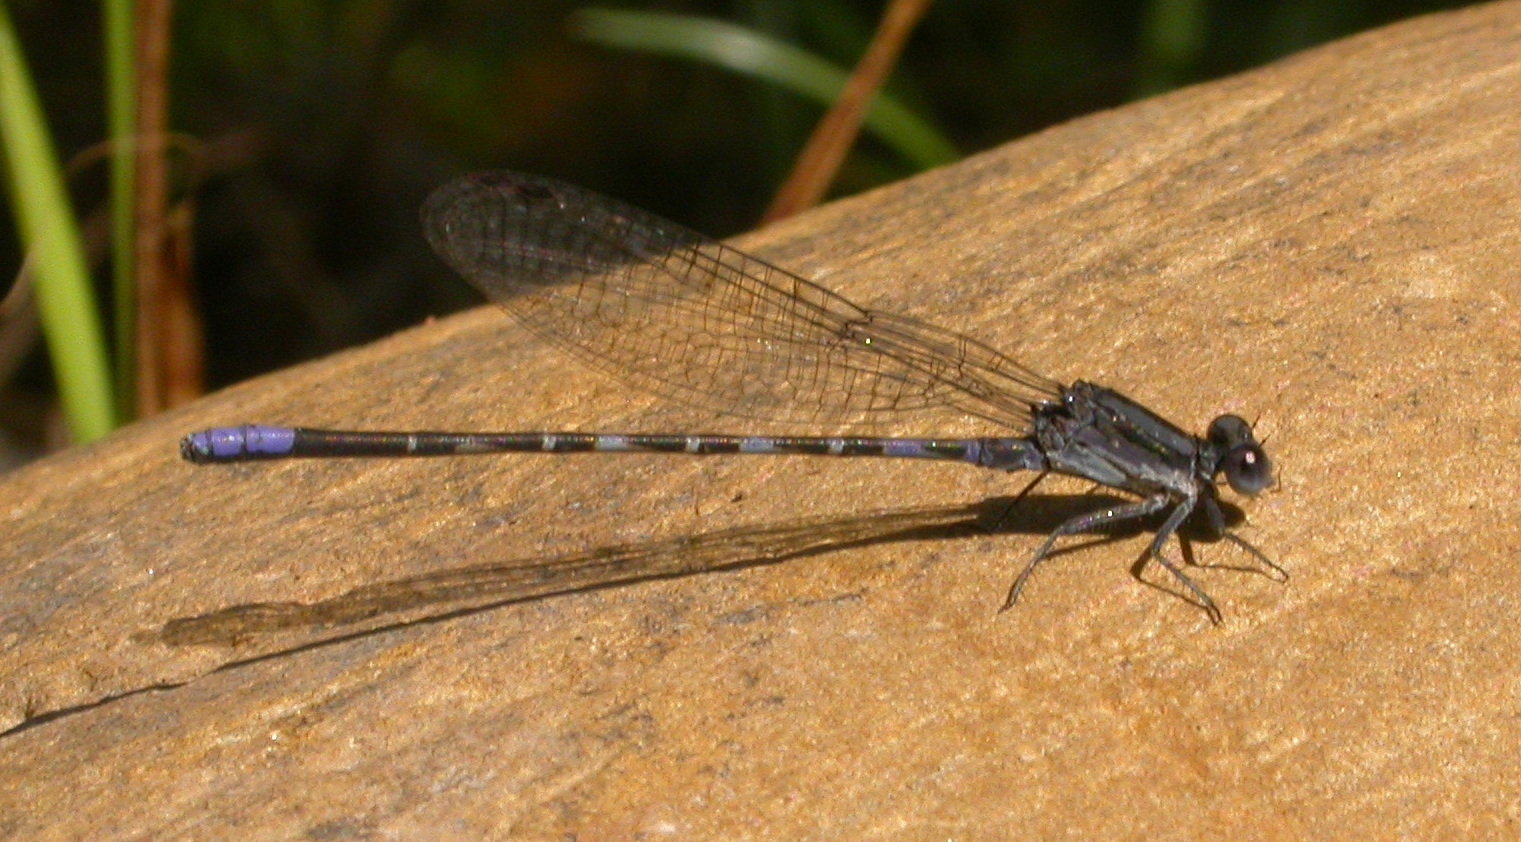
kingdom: Animalia
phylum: Arthropoda
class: Insecta
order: Odonata
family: Coenagrionidae
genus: Argia
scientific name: Argia immunda
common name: Kiowa dancer
